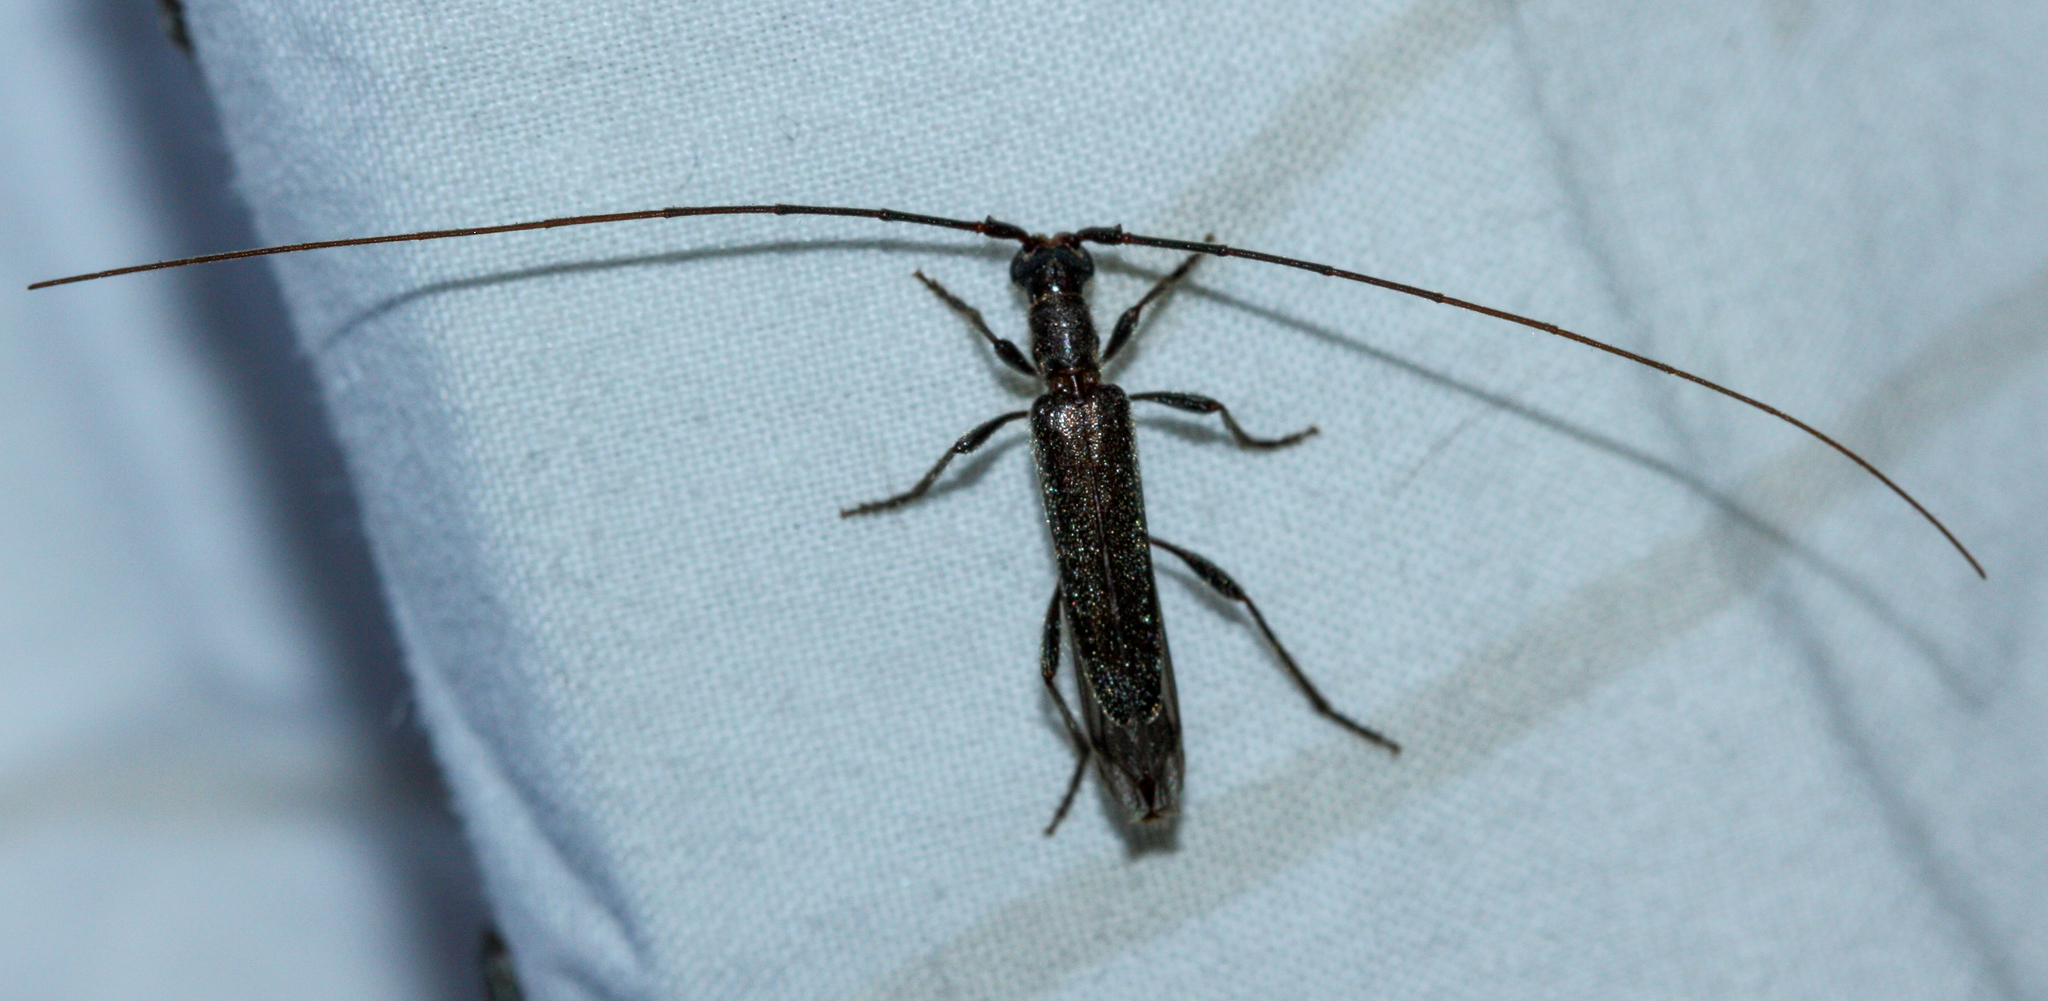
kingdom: Animalia
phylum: Arthropoda
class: Insecta
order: Coleoptera
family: Cerambycidae
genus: Styloxus
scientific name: Styloxus fulleri
